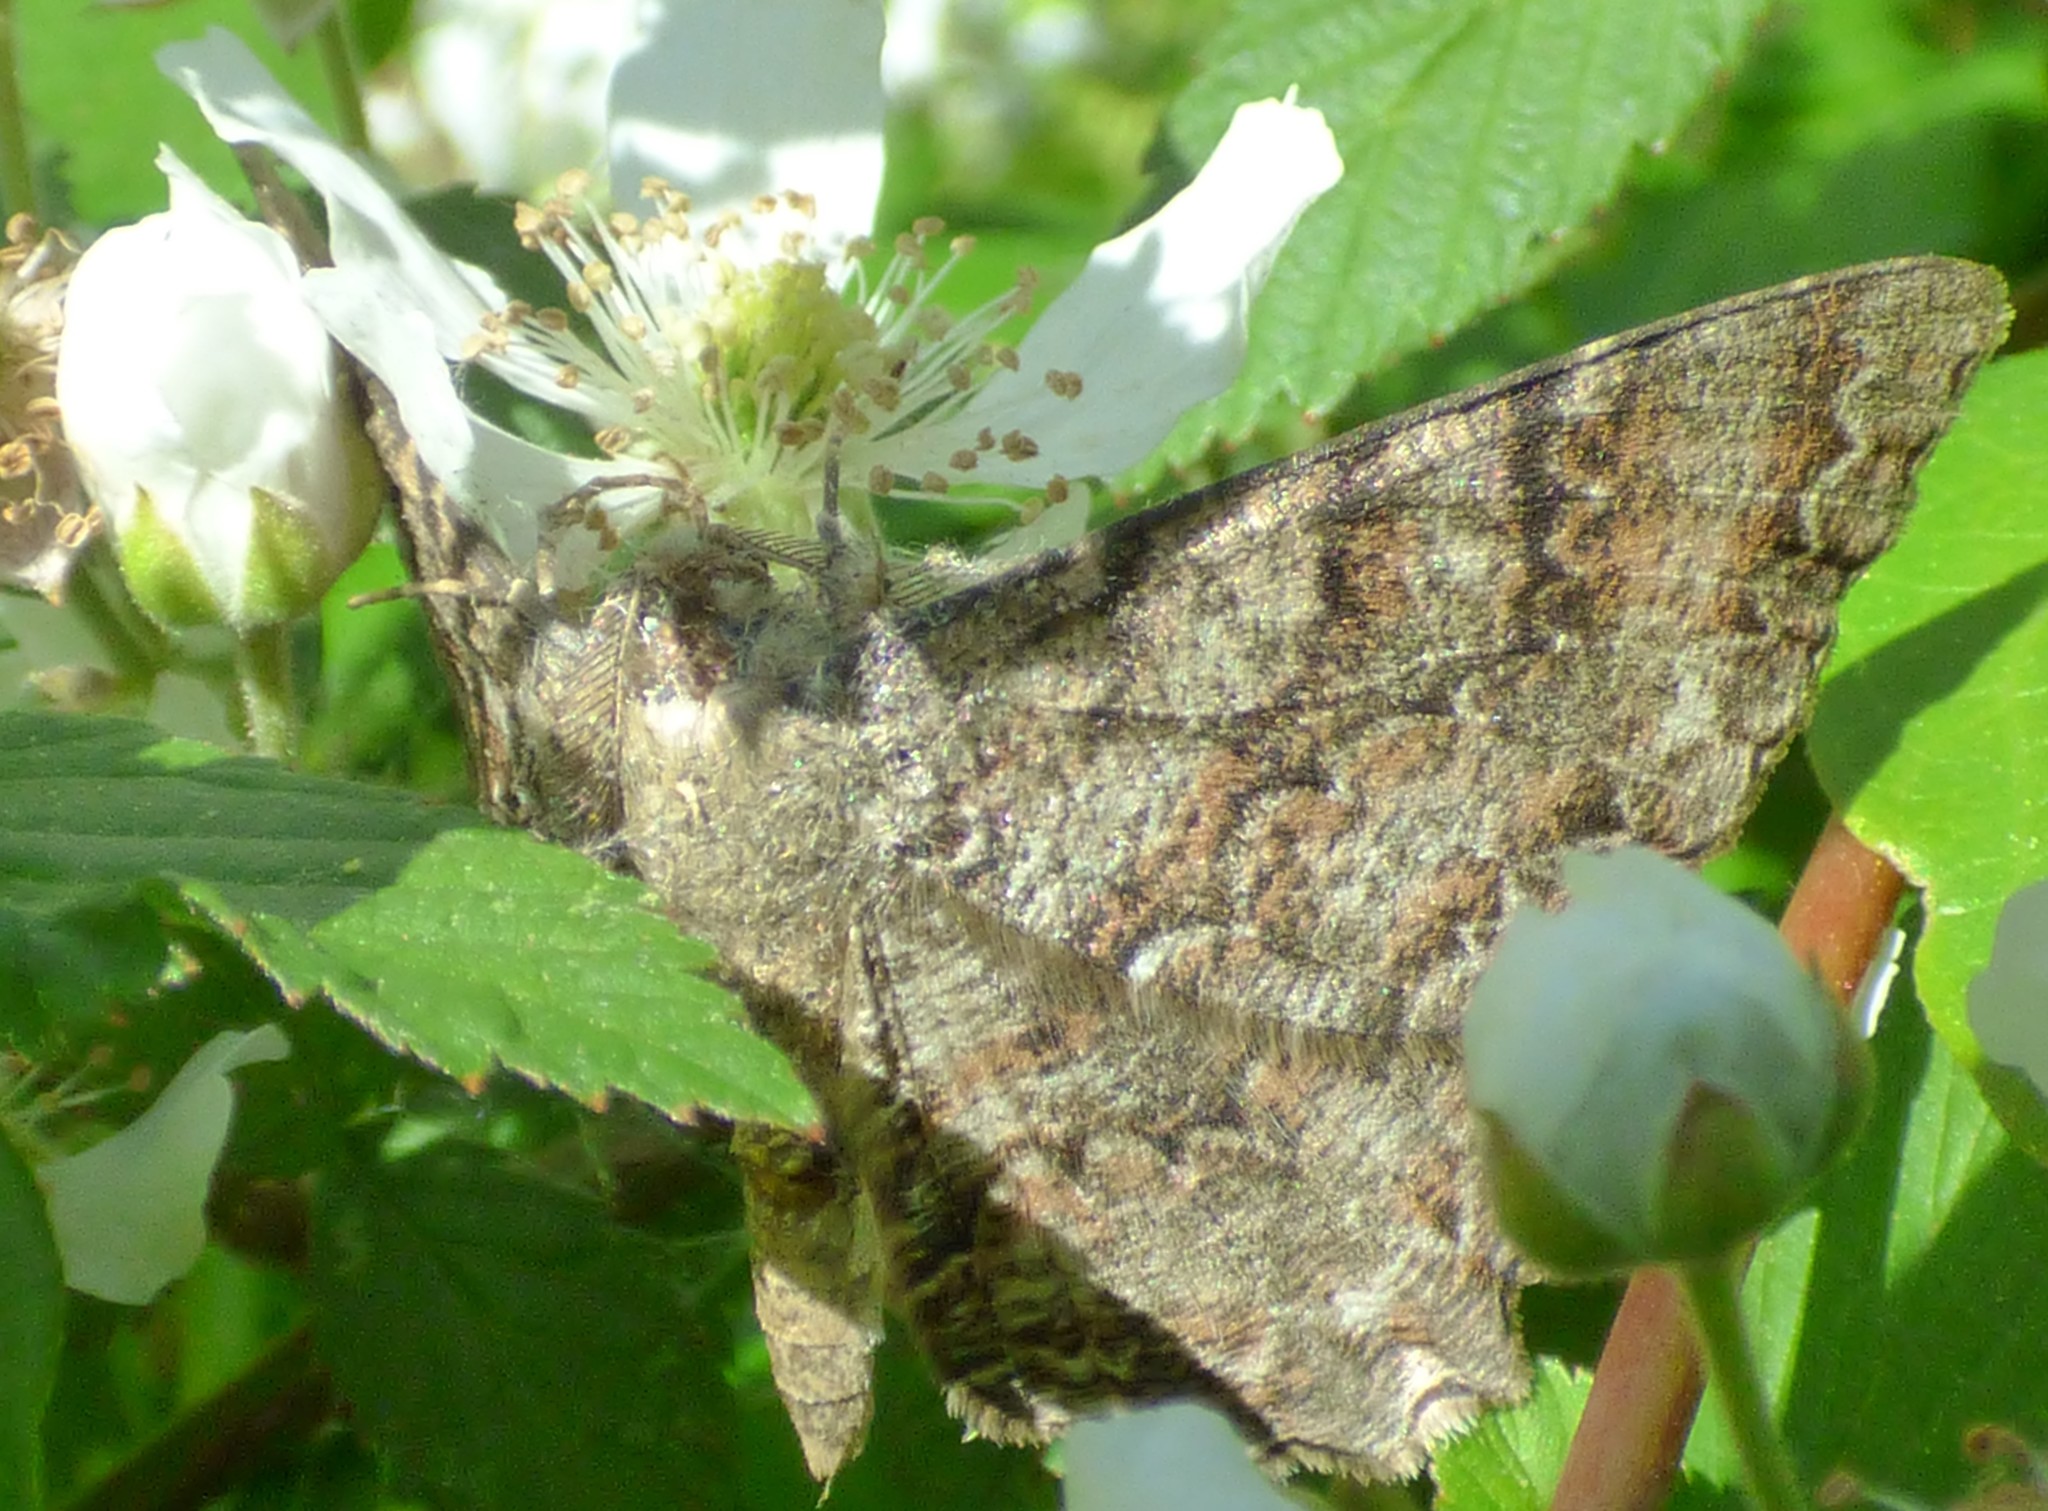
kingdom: Animalia
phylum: Arthropoda
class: Insecta
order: Lepidoptera
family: Geometridae
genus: Epimecis
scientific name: Epimecis hortaria
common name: Tulip-tree beauty
